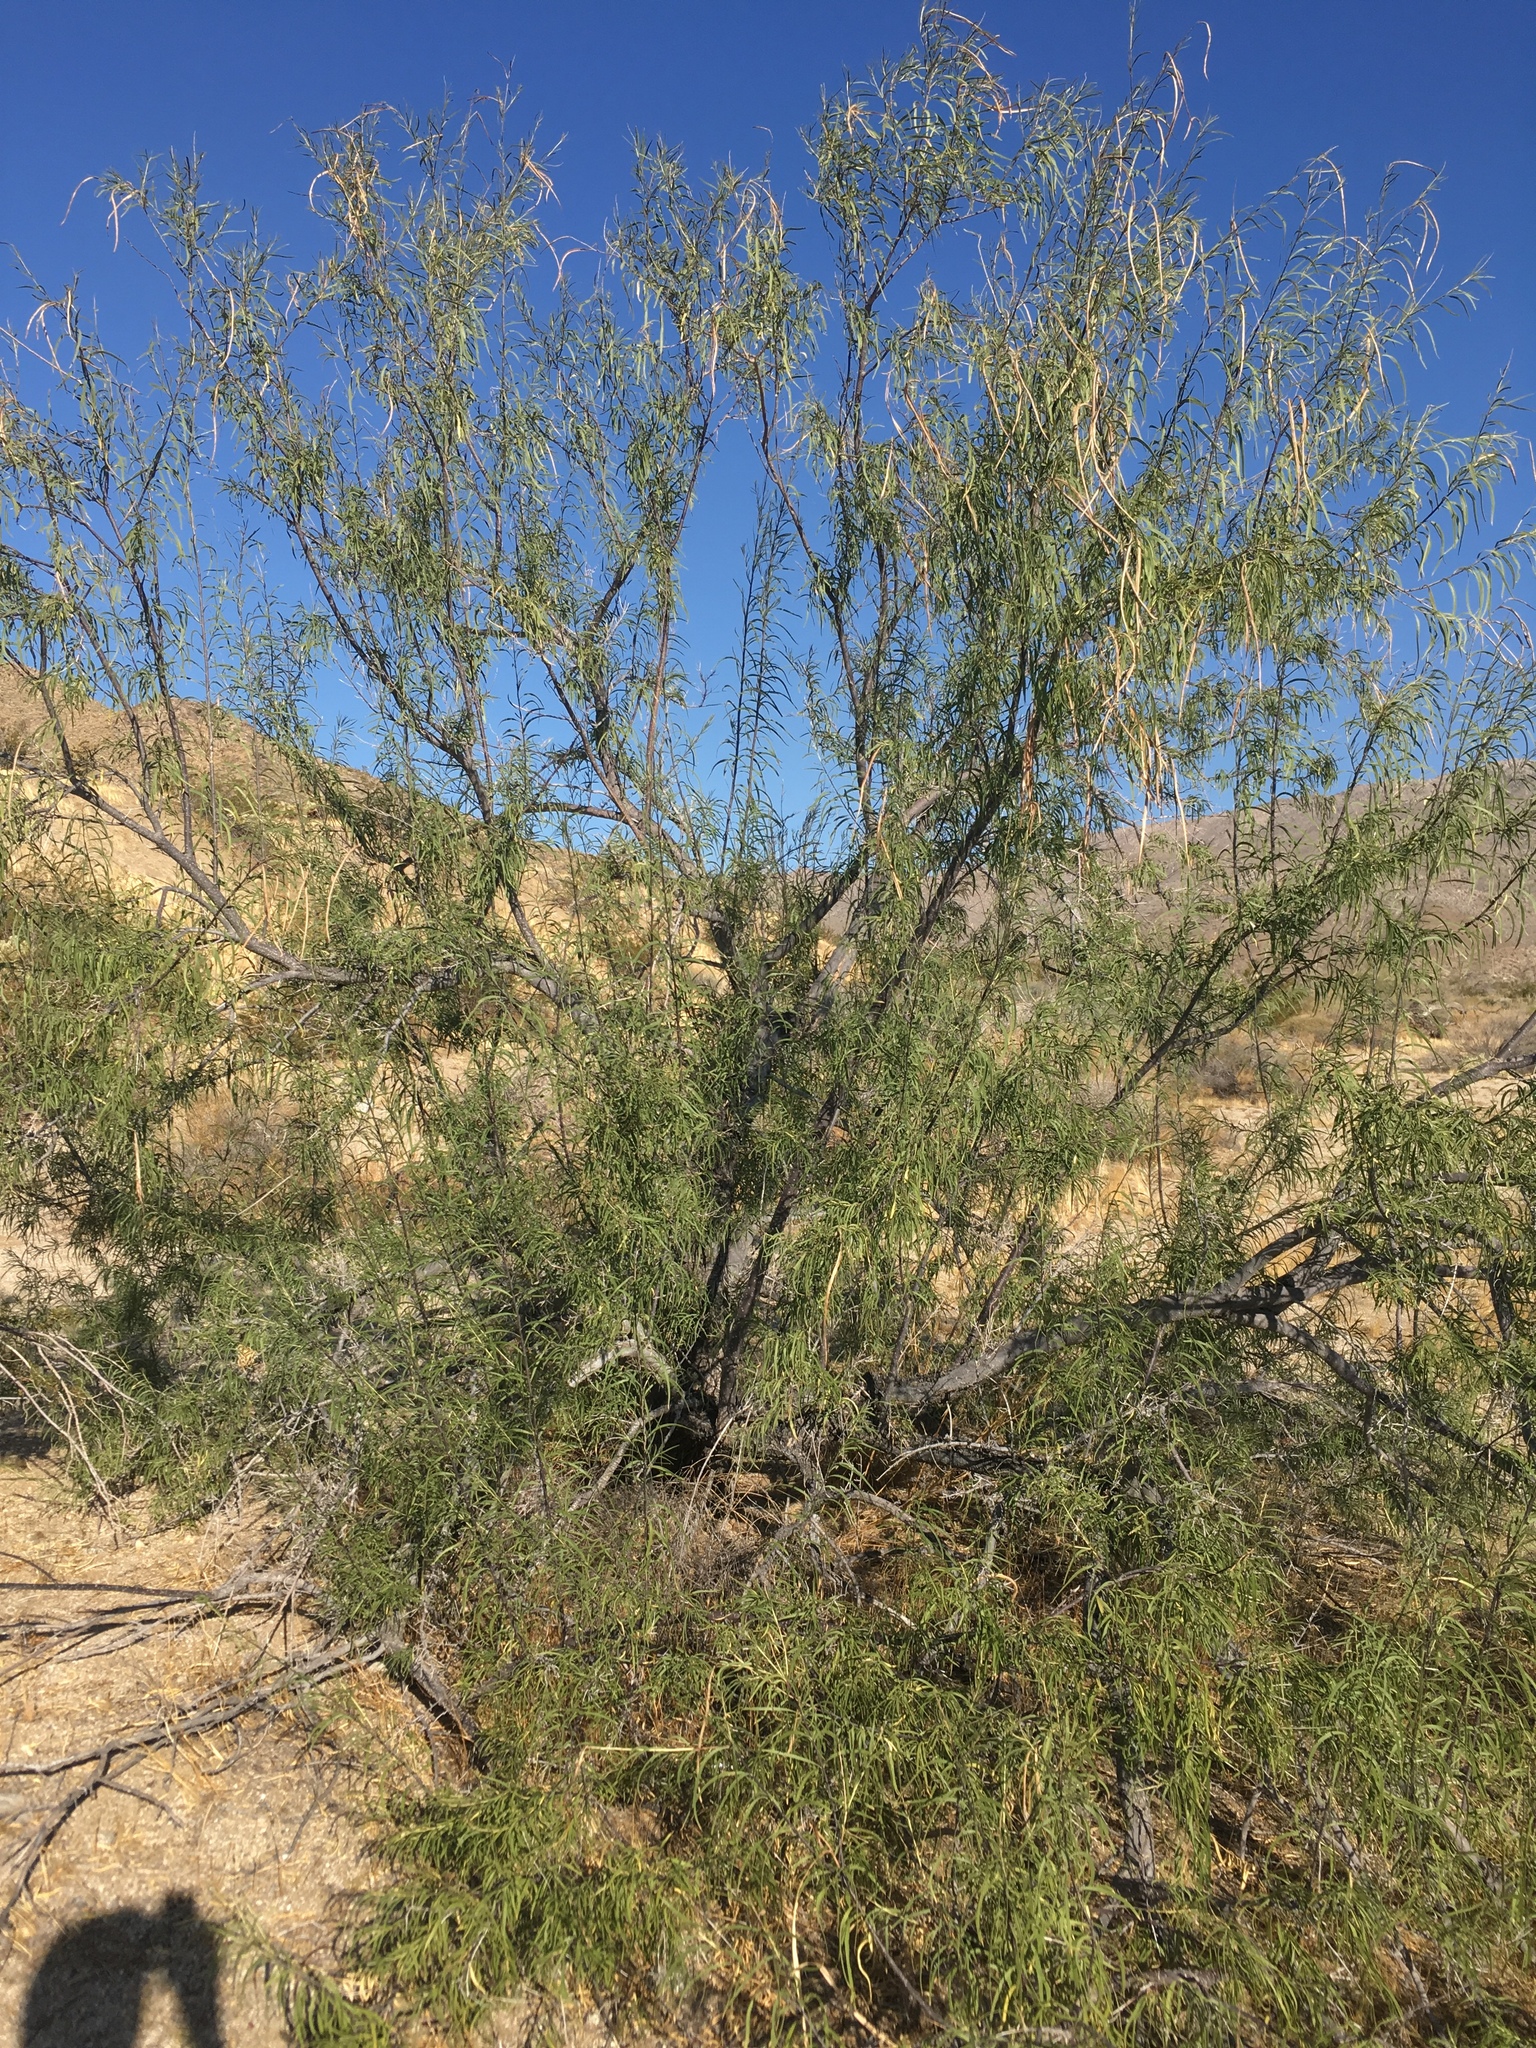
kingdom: Plantae
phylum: Tracheophyta
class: Magnoliopsida
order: Lamiales
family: Bignoniaceae
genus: Chilopsis
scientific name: Chilopsis linearis
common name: Desert-willow
